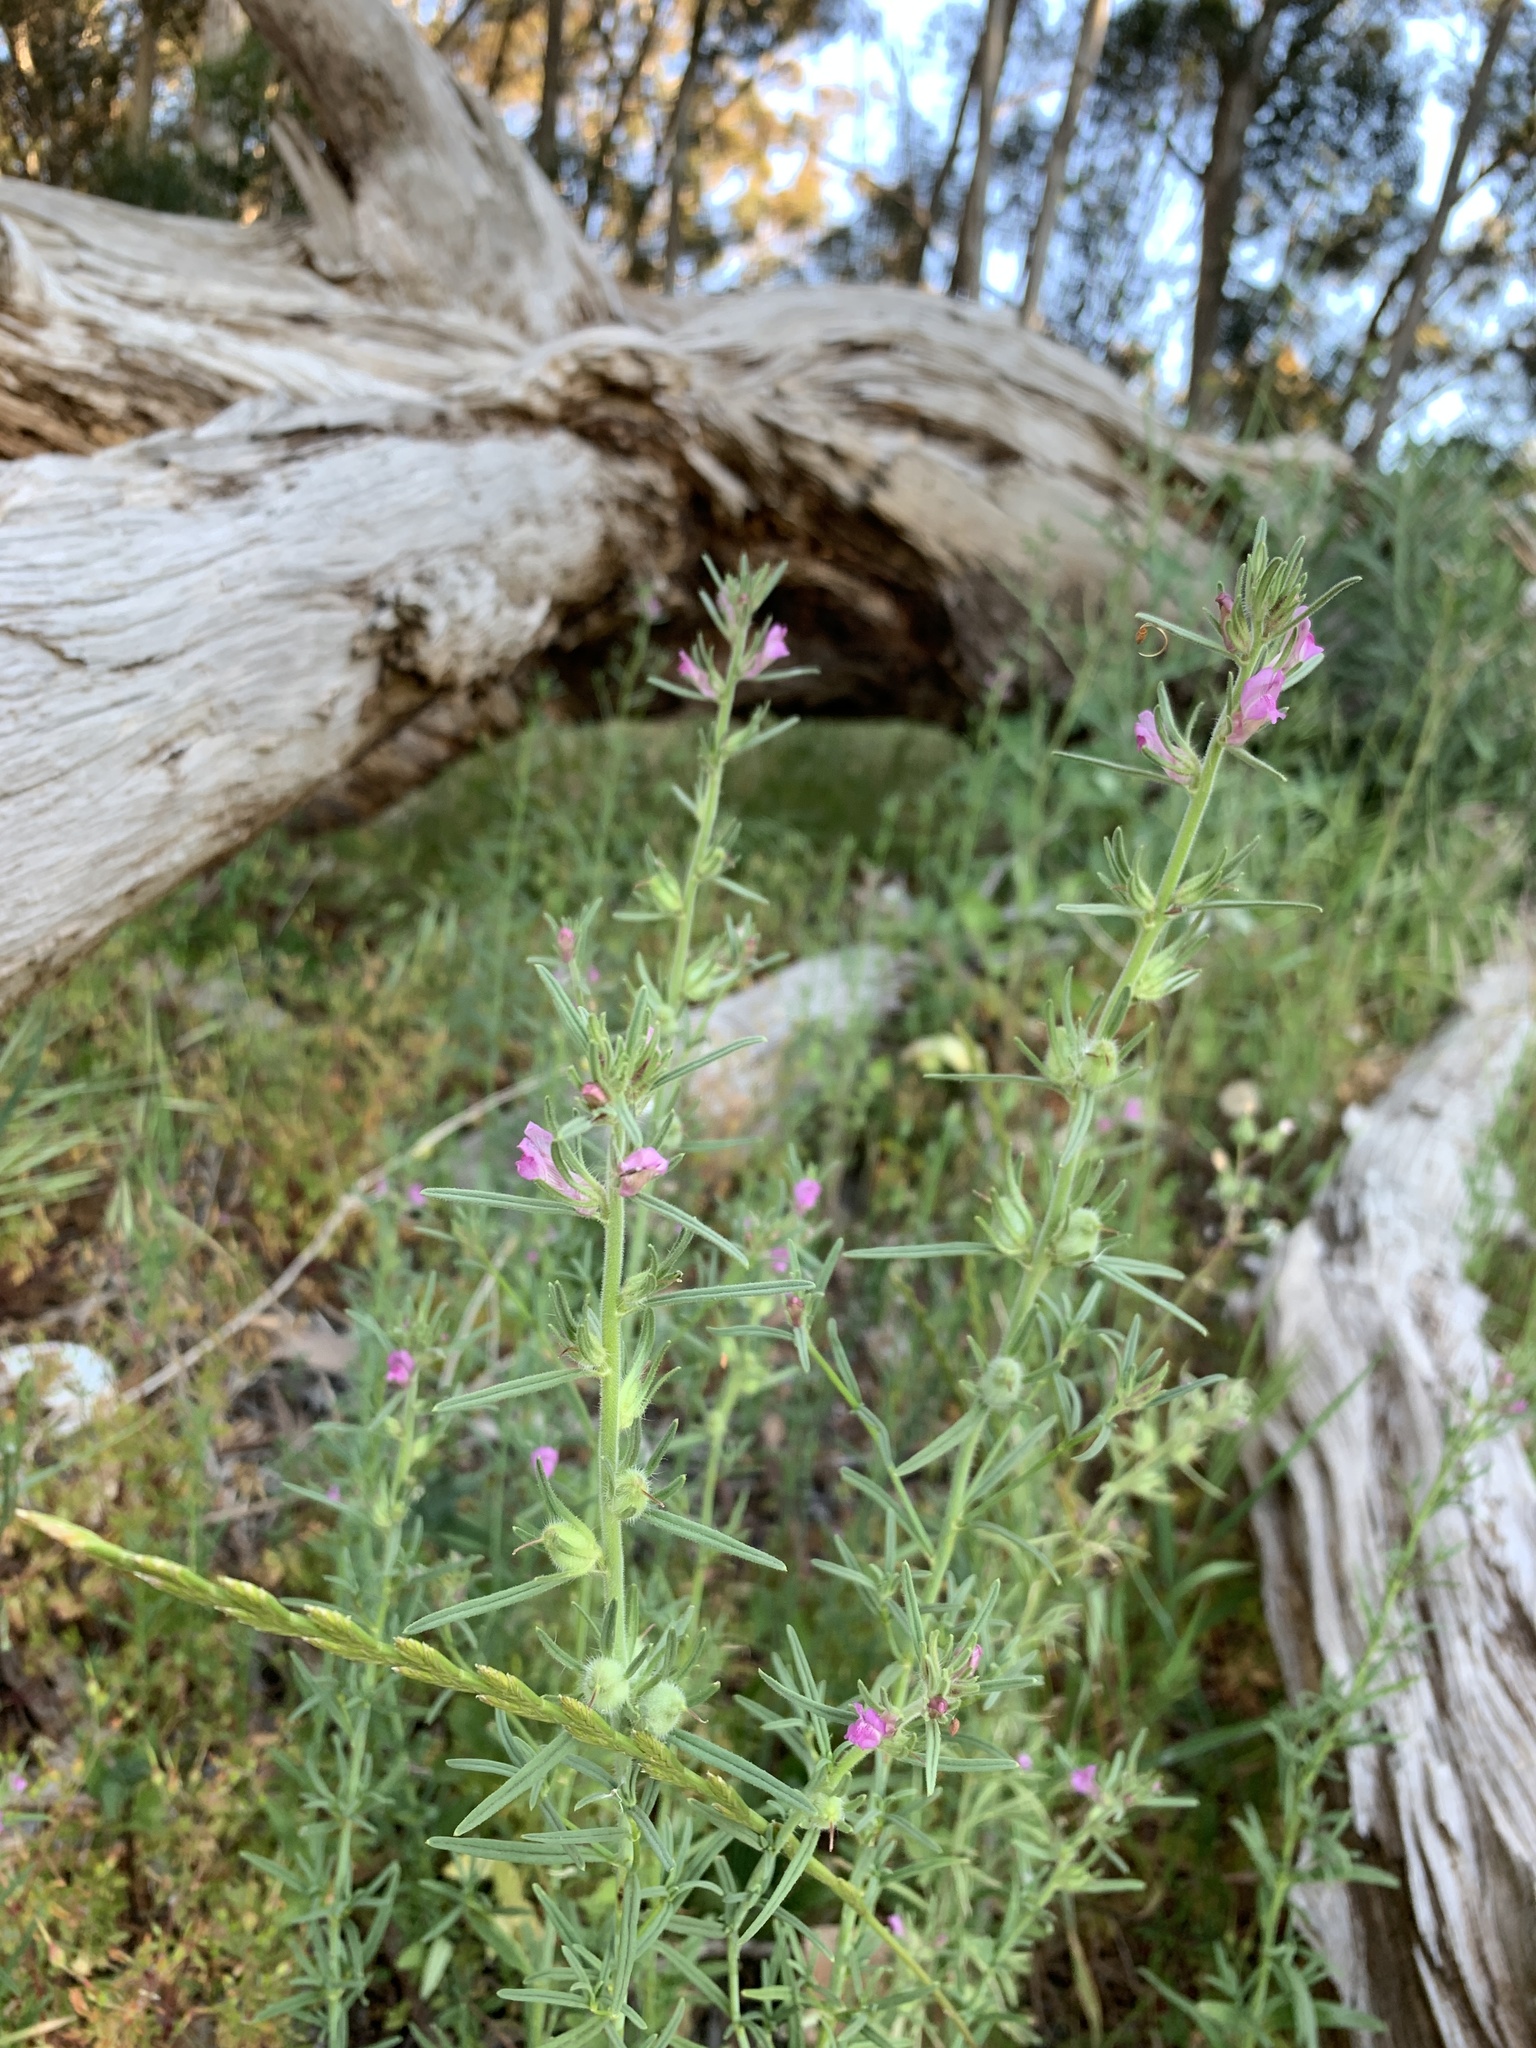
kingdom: Plantae
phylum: Tracheophyta
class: Magnoliopsida
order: Lamiales
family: Plantaginaceae
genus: Misopates
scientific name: Misopates orontium
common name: Weasel's-snout
